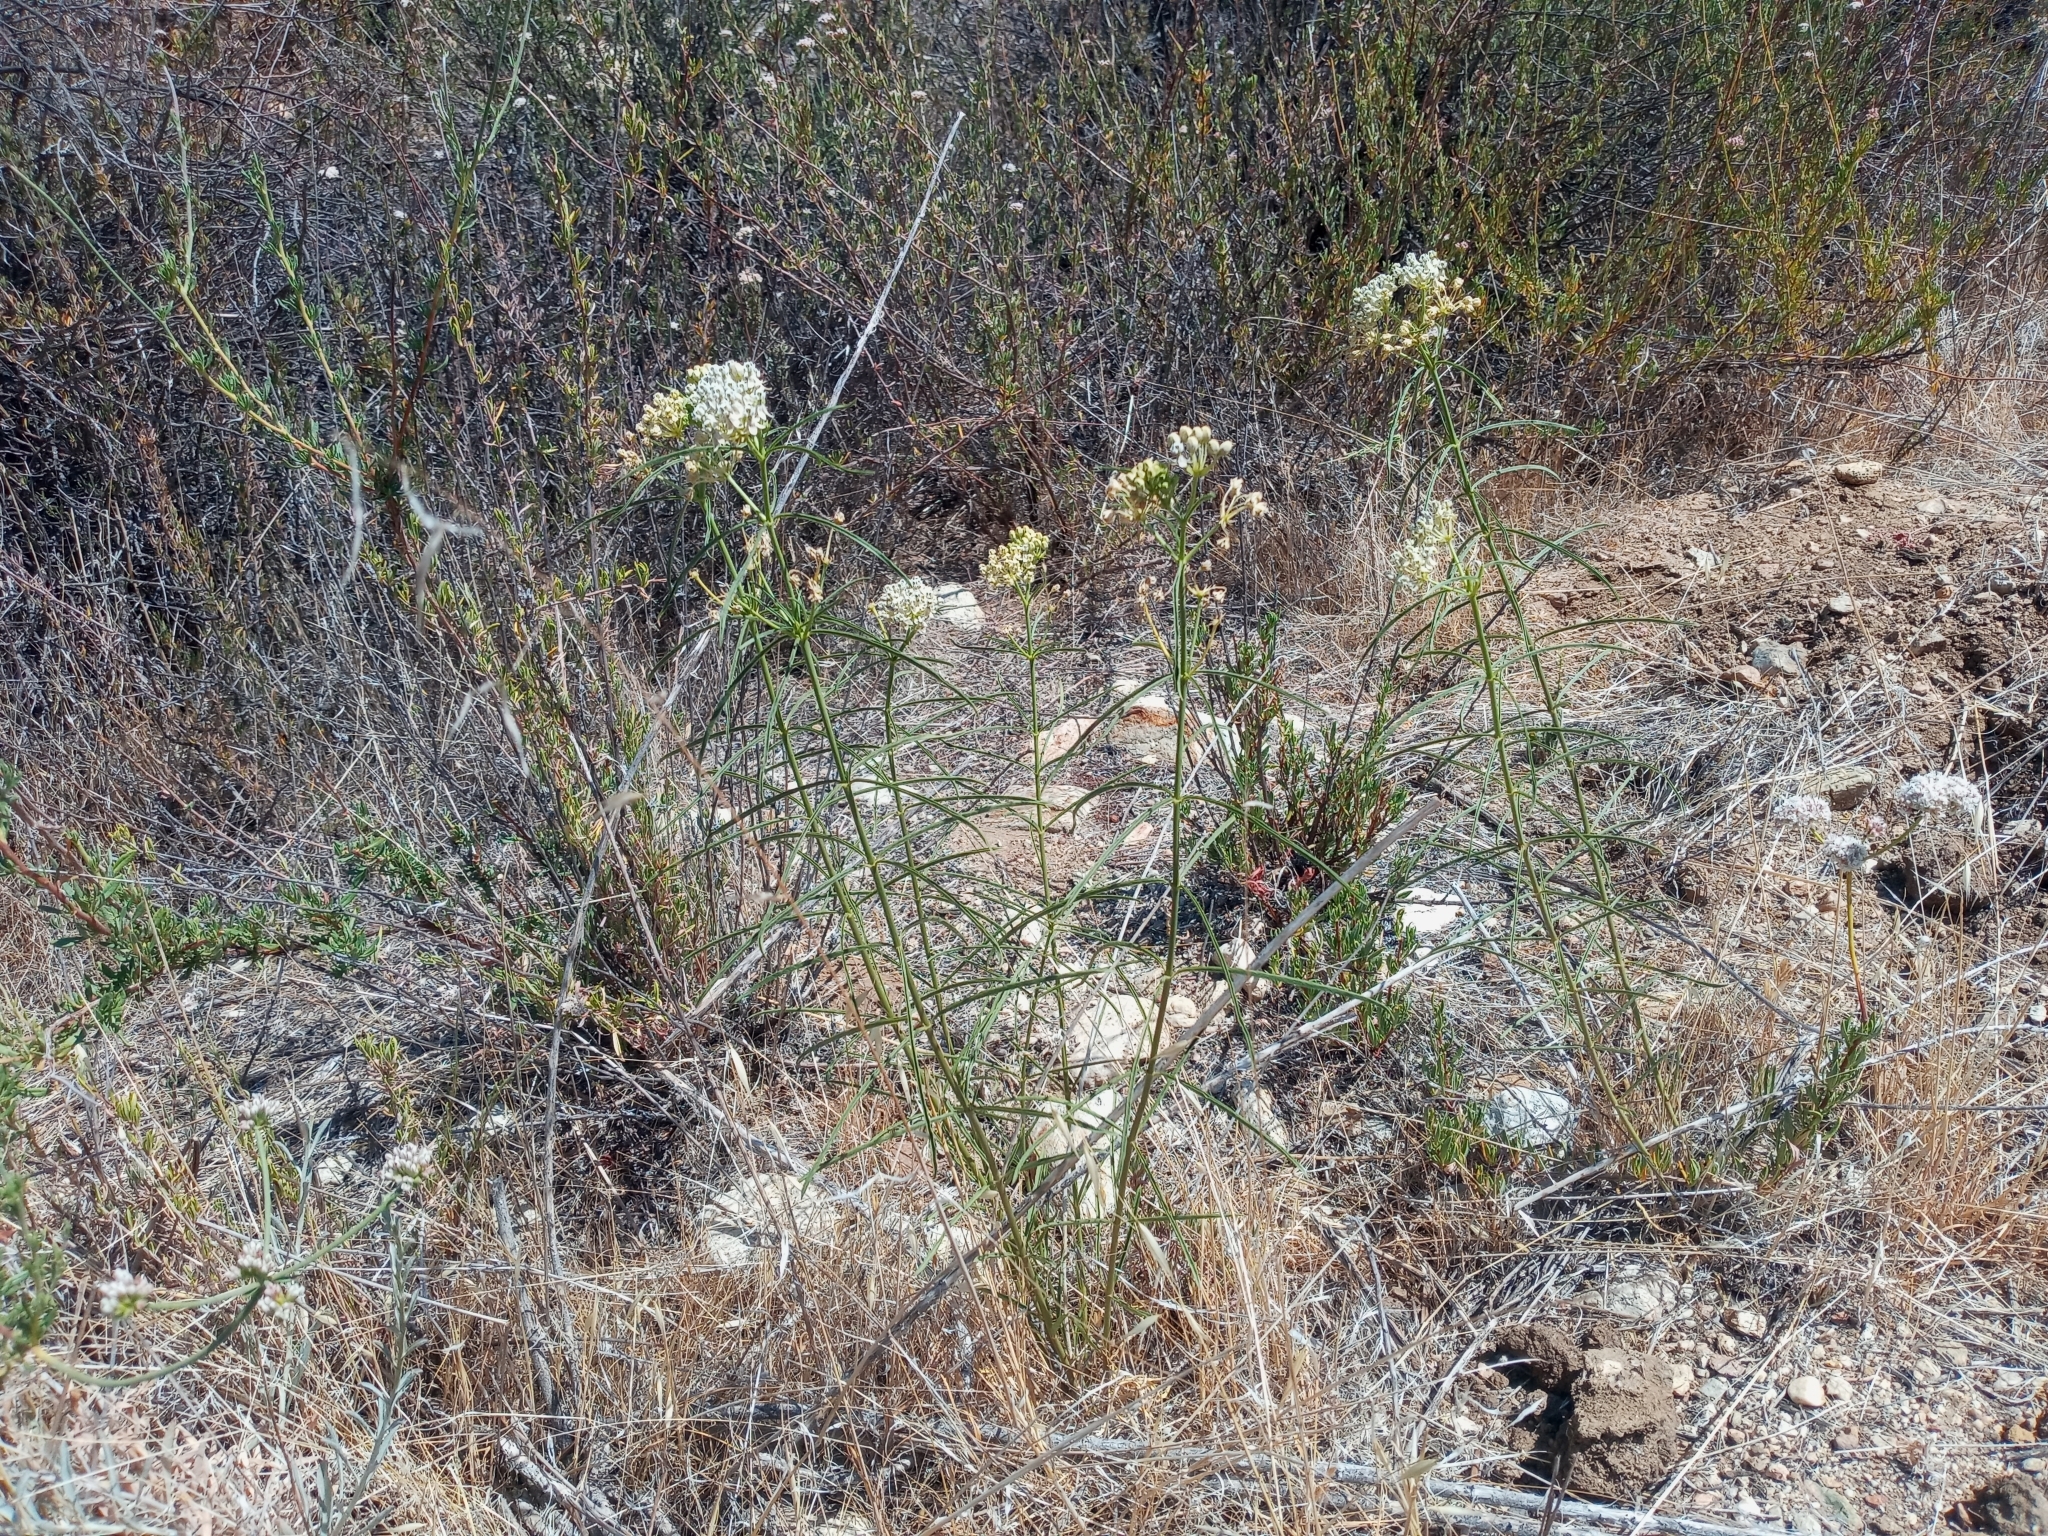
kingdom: Plantae
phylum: Tracheophyta
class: Magnoliopsida
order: Gentianales
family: Apocynaceae
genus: Asclepias
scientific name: Asclepias fascicularis
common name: Mexican milkweed
